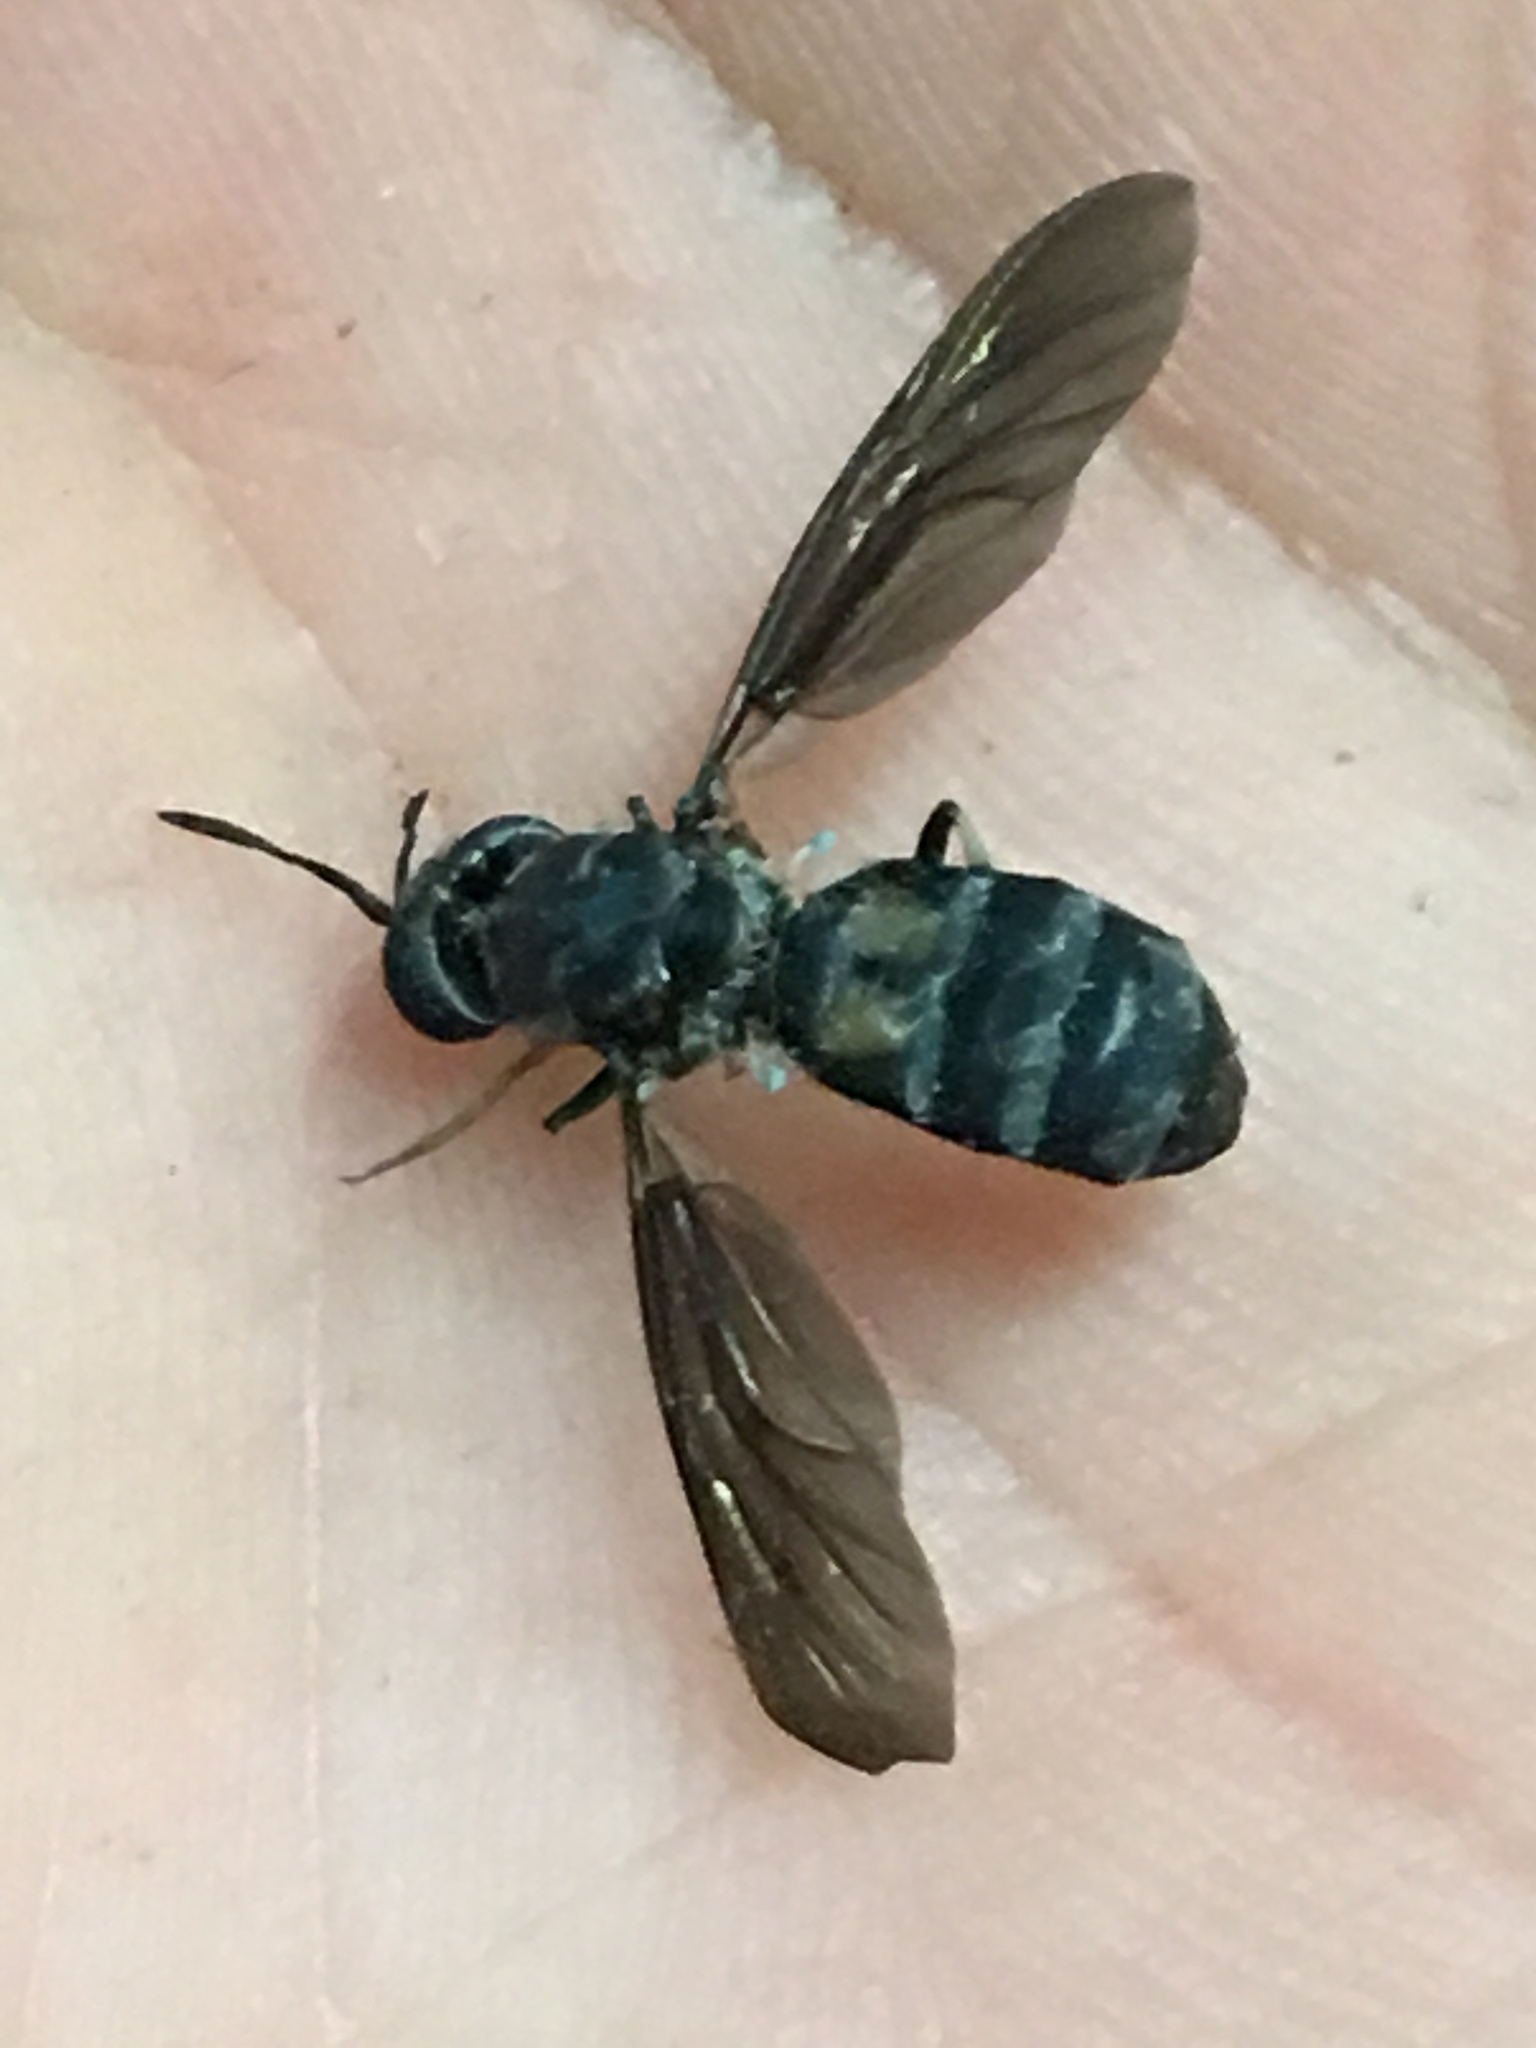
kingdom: Animalia
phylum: Arthropoda
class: Insecta
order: Diptera
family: Stratiomyidae
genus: Hermetia
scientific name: Hermetia illucens
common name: Black soldier fly
